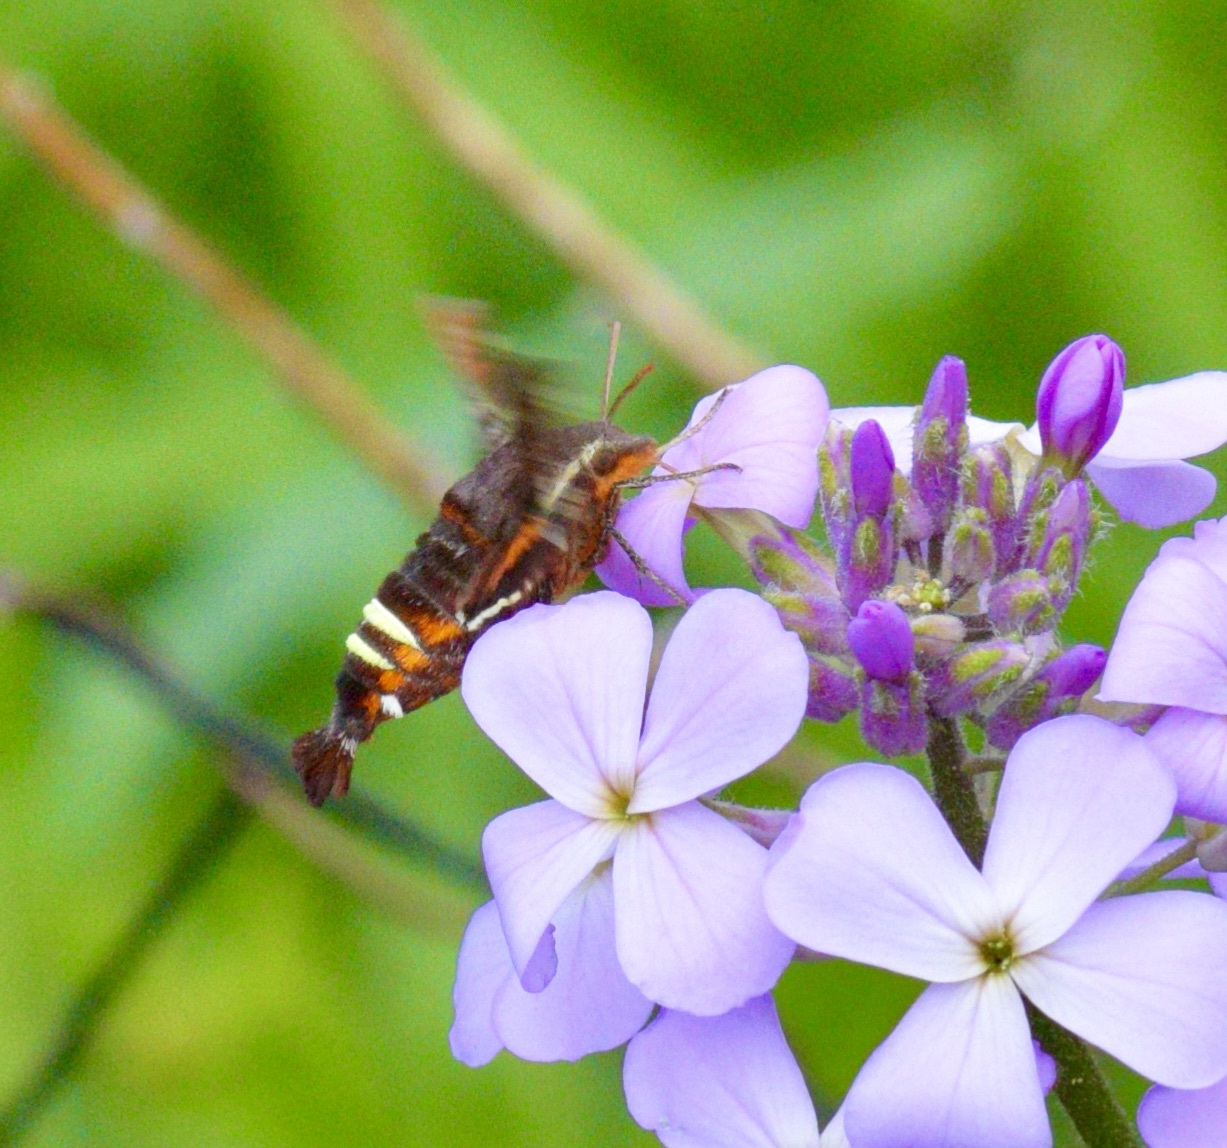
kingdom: Animalia
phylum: Arthropoda
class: Insecta
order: Lepidoptera
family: Sphingidae
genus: Amphion
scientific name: Amphion floridensis
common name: Nessus sphinx
